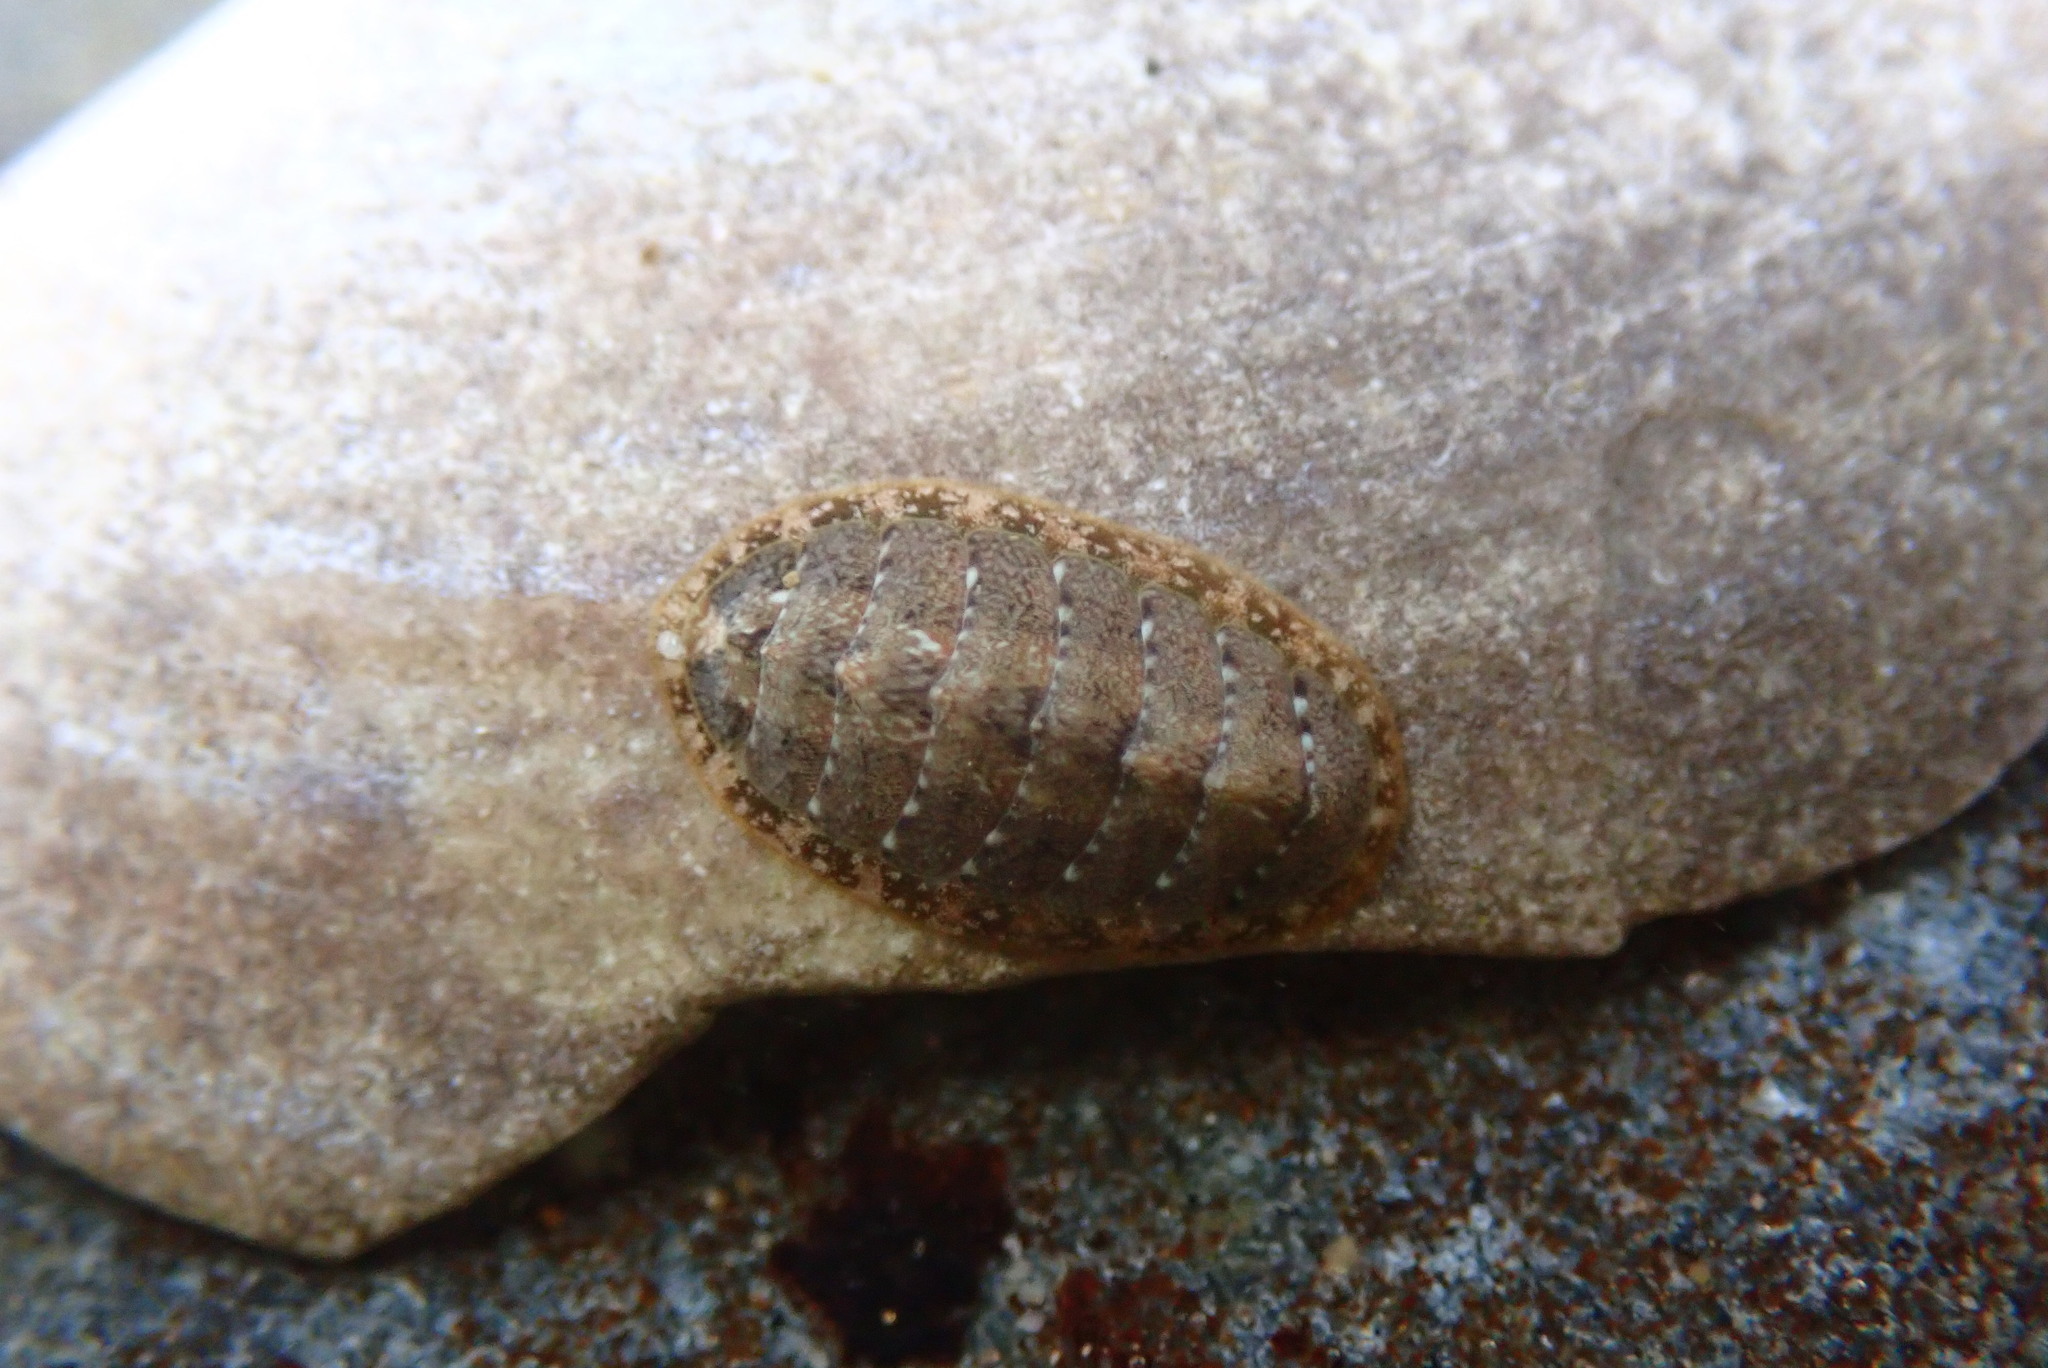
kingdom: Animalia
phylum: Mollusca
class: Polyplacophora
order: Chitonida
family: Tonicellidae
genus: Cyanoplax
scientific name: Cyanoplax keepiana
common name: Keep's chiton
